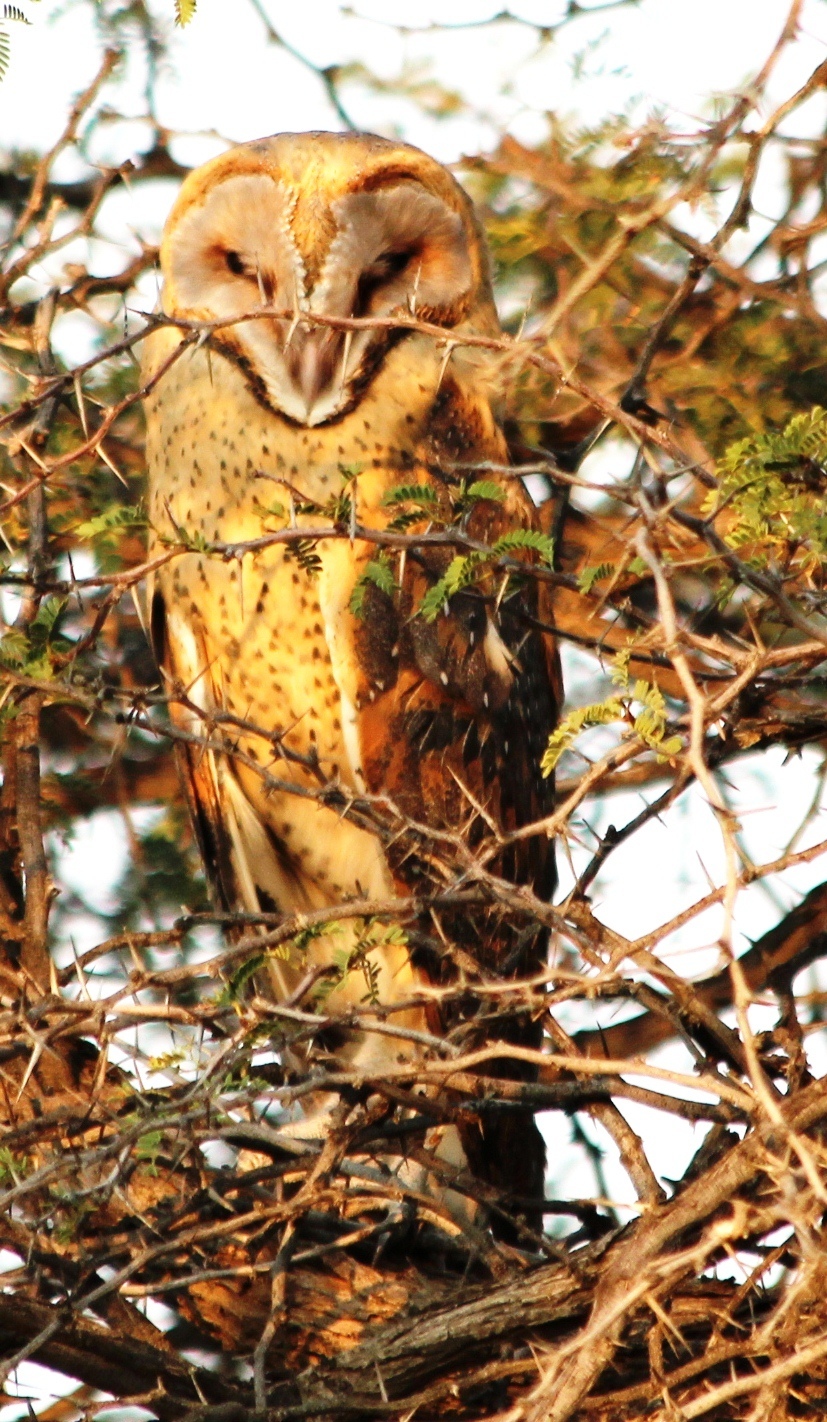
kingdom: Animalia
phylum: Chordata
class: Aves
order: Strigiformes
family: Tytonidae
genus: Tyto
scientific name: Tyto alba
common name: Barn owl
